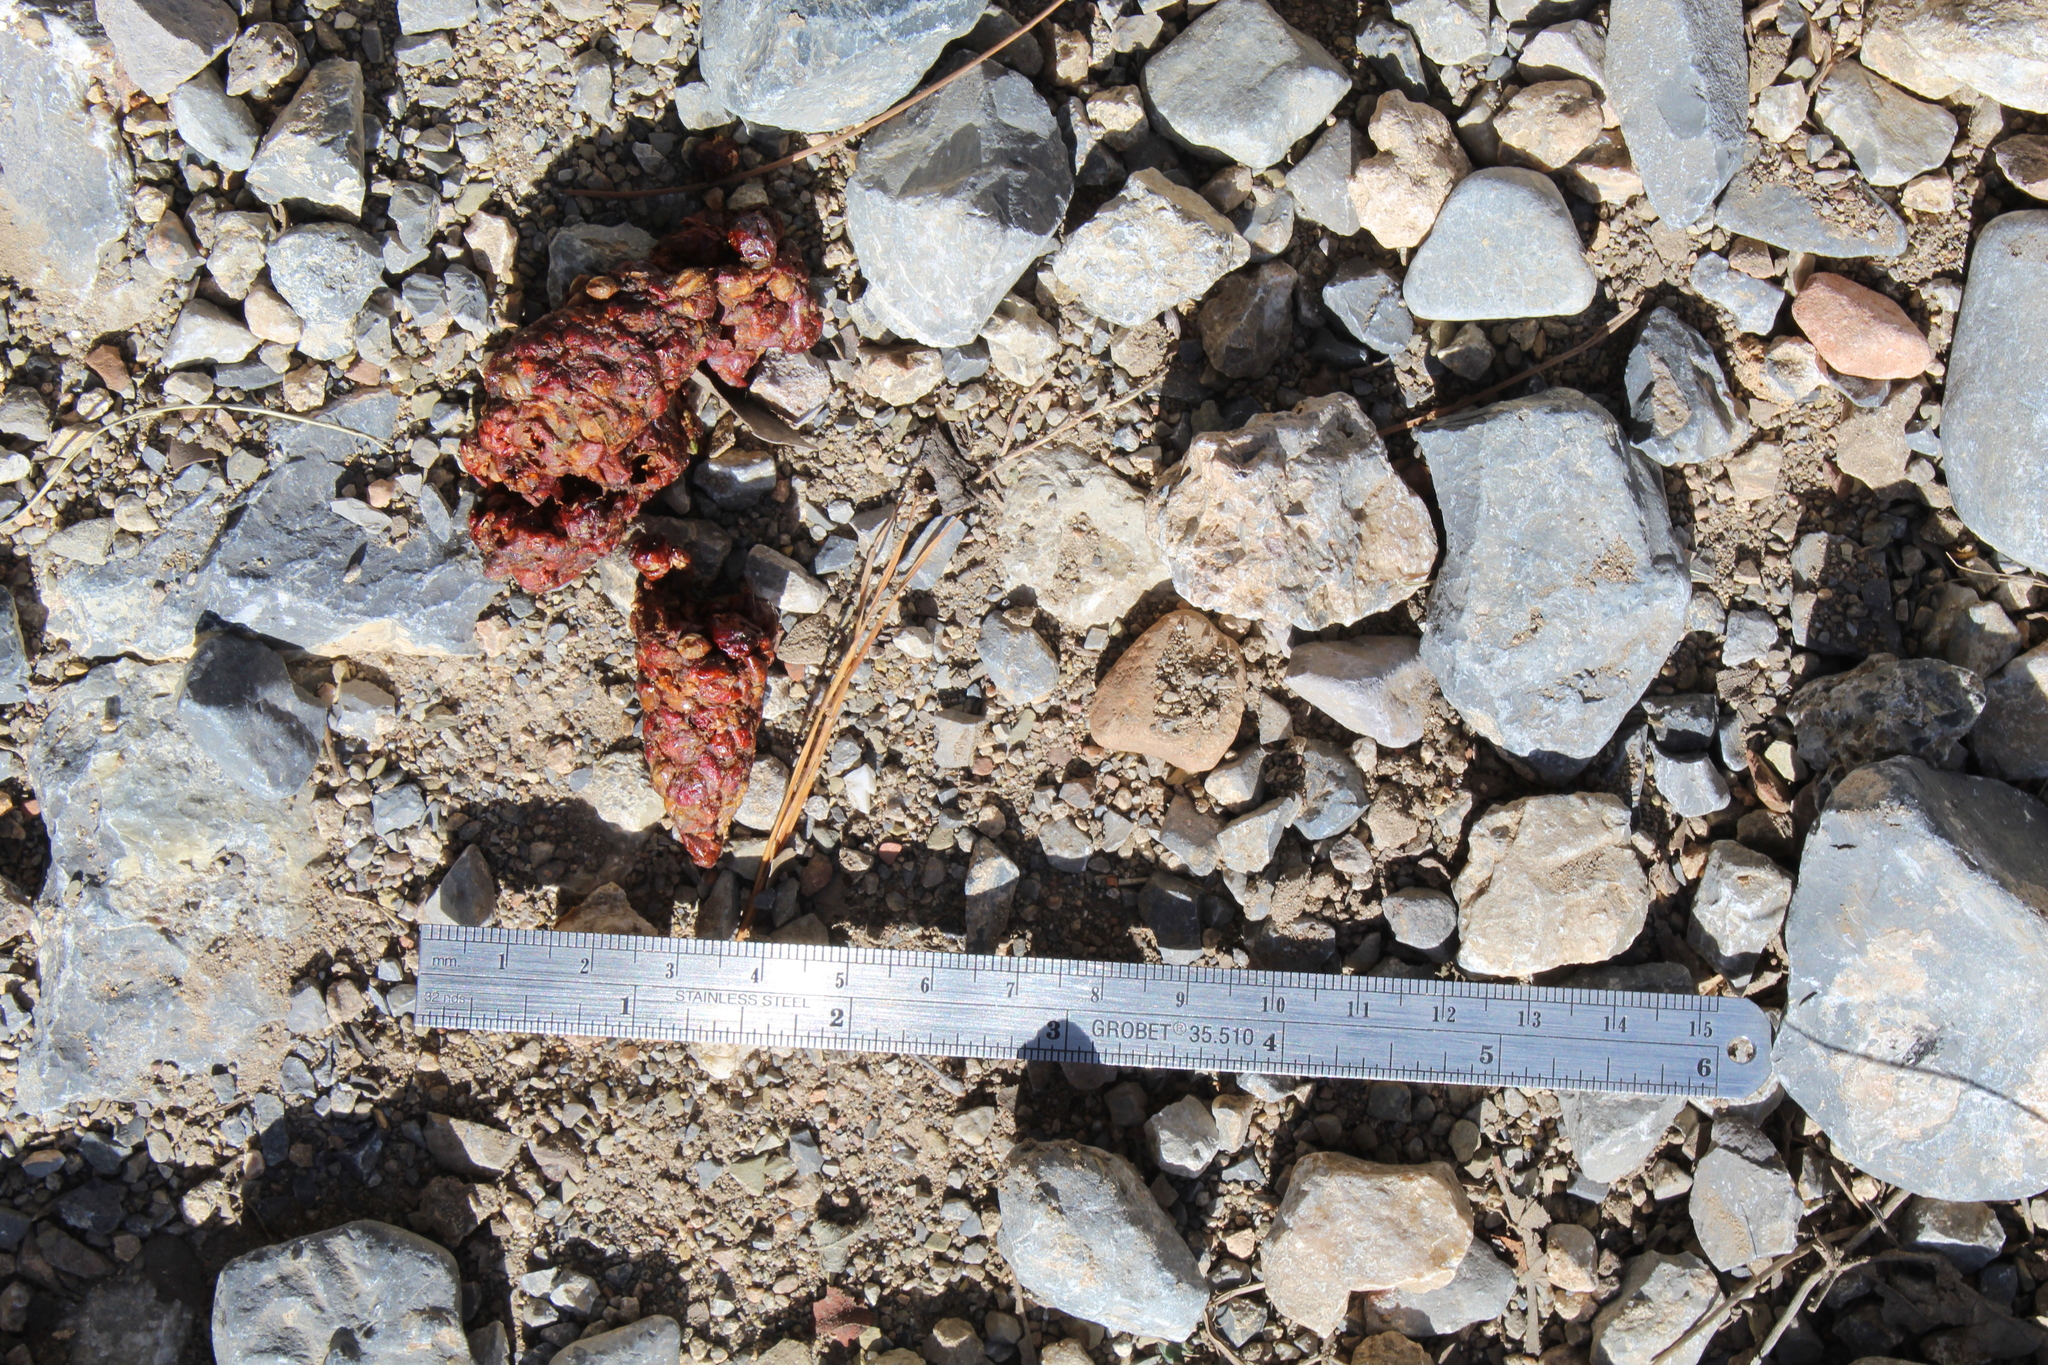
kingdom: Animalia
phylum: Chordata
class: Mammalia
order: Carnivora
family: Canidae
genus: Urocyon
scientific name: Urocyon cinereoargenteus
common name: Gray fox
